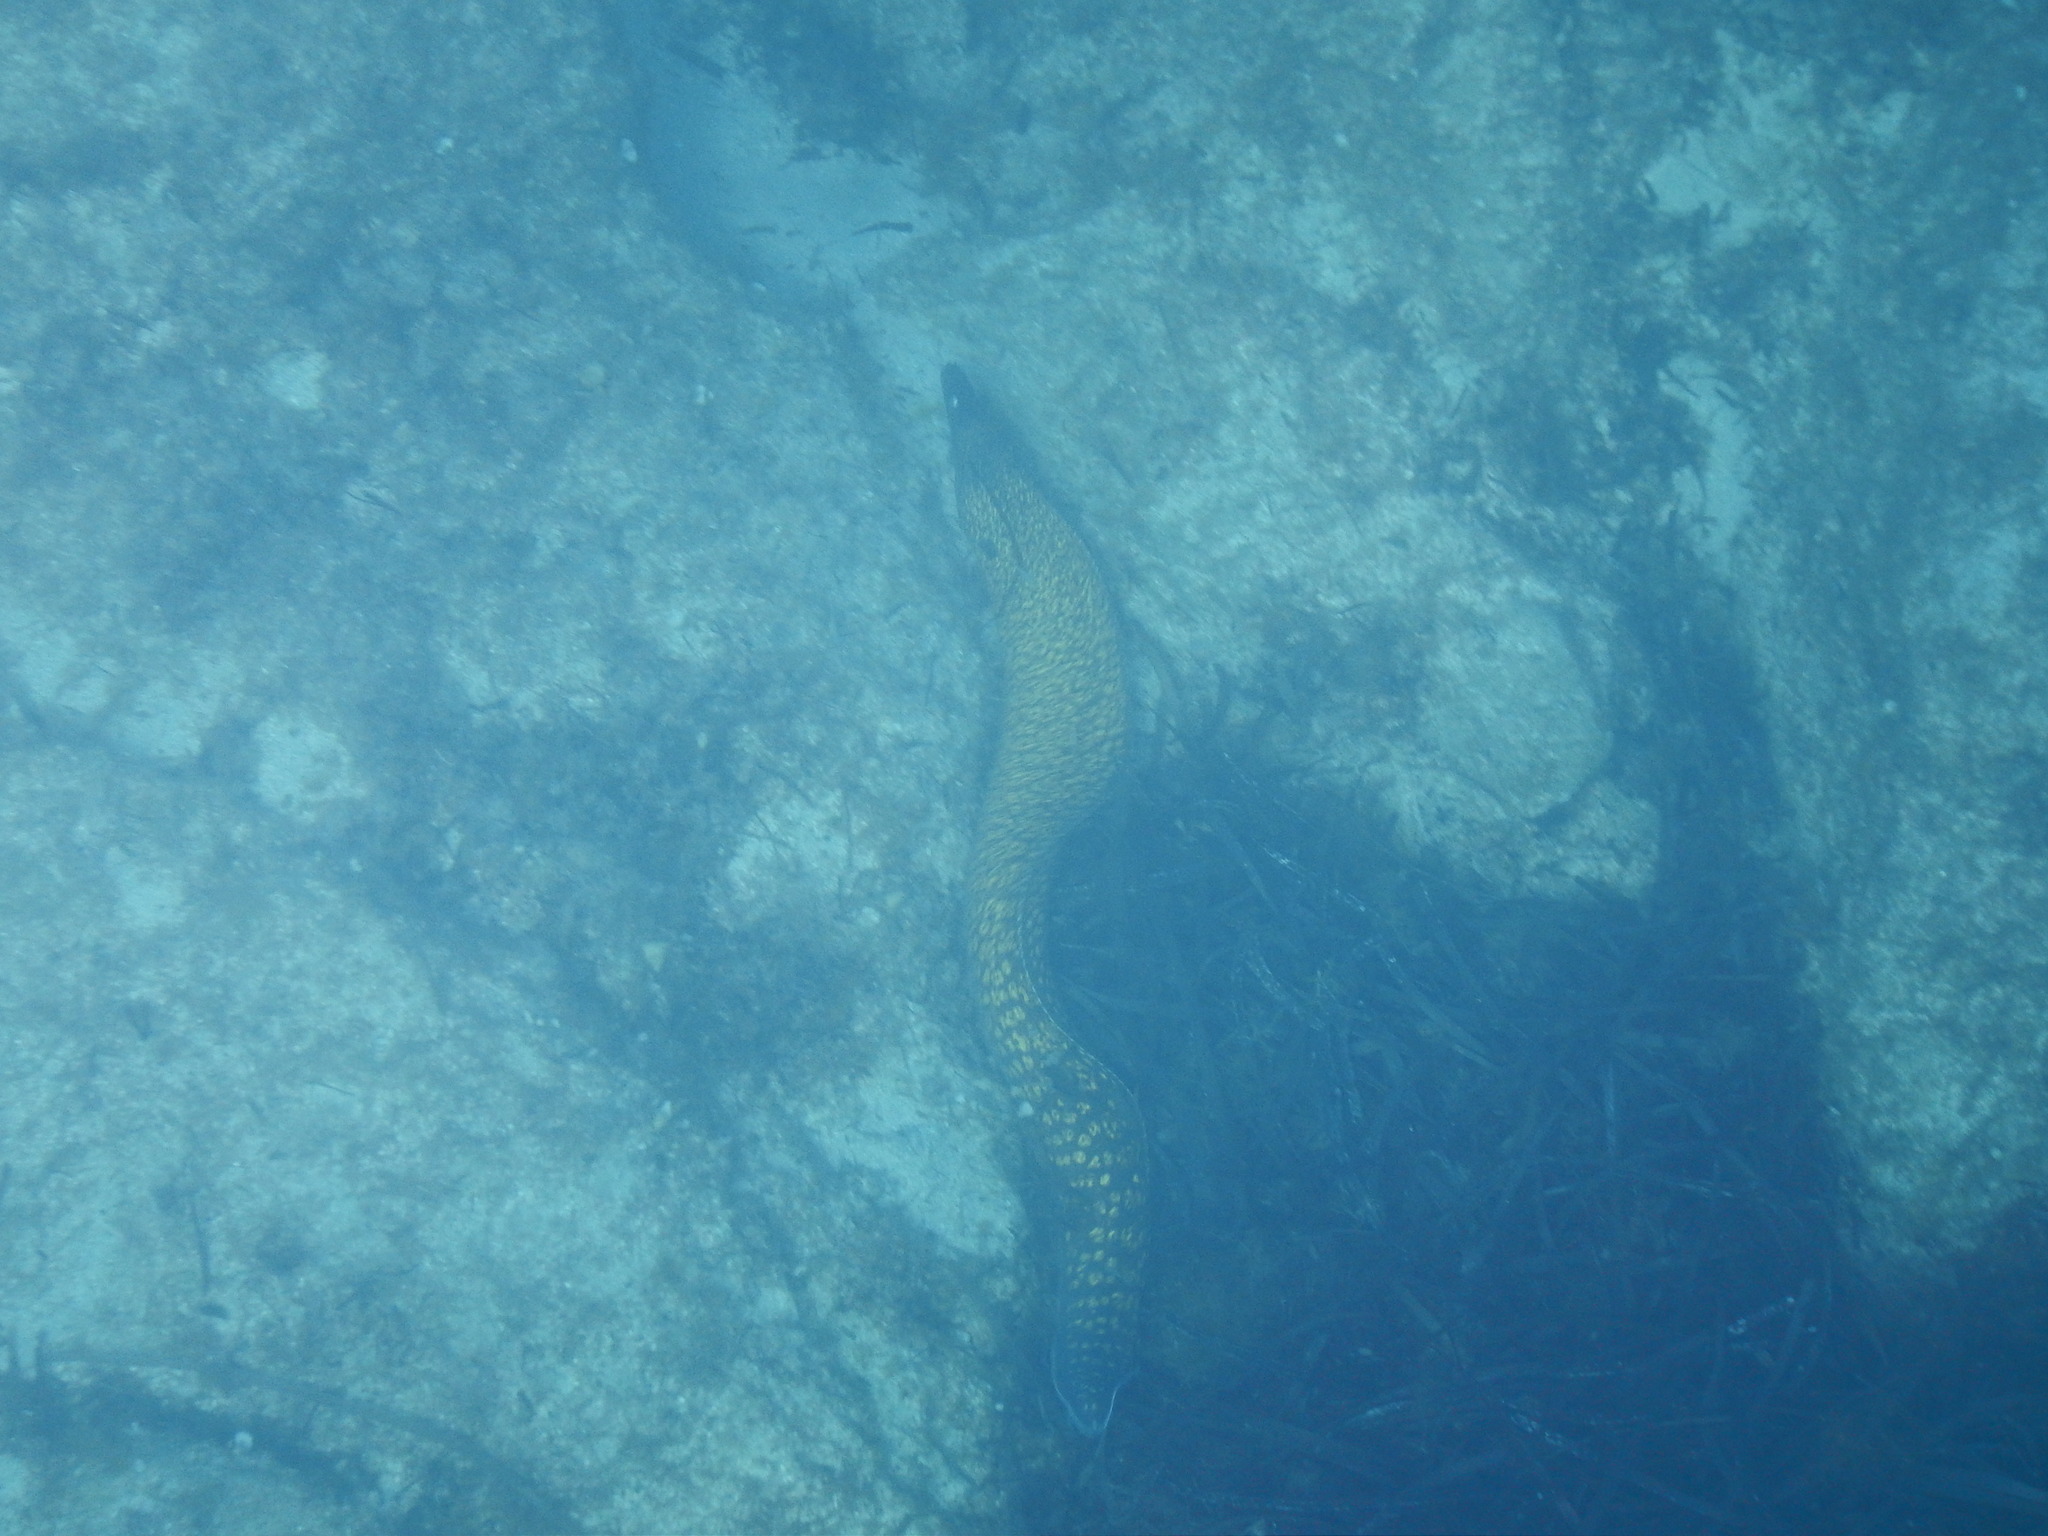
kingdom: Animalia
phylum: Chordata
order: Anguilliformes
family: Muraenidae
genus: Muraena
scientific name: Muraena helena
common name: Mediterranean moray
